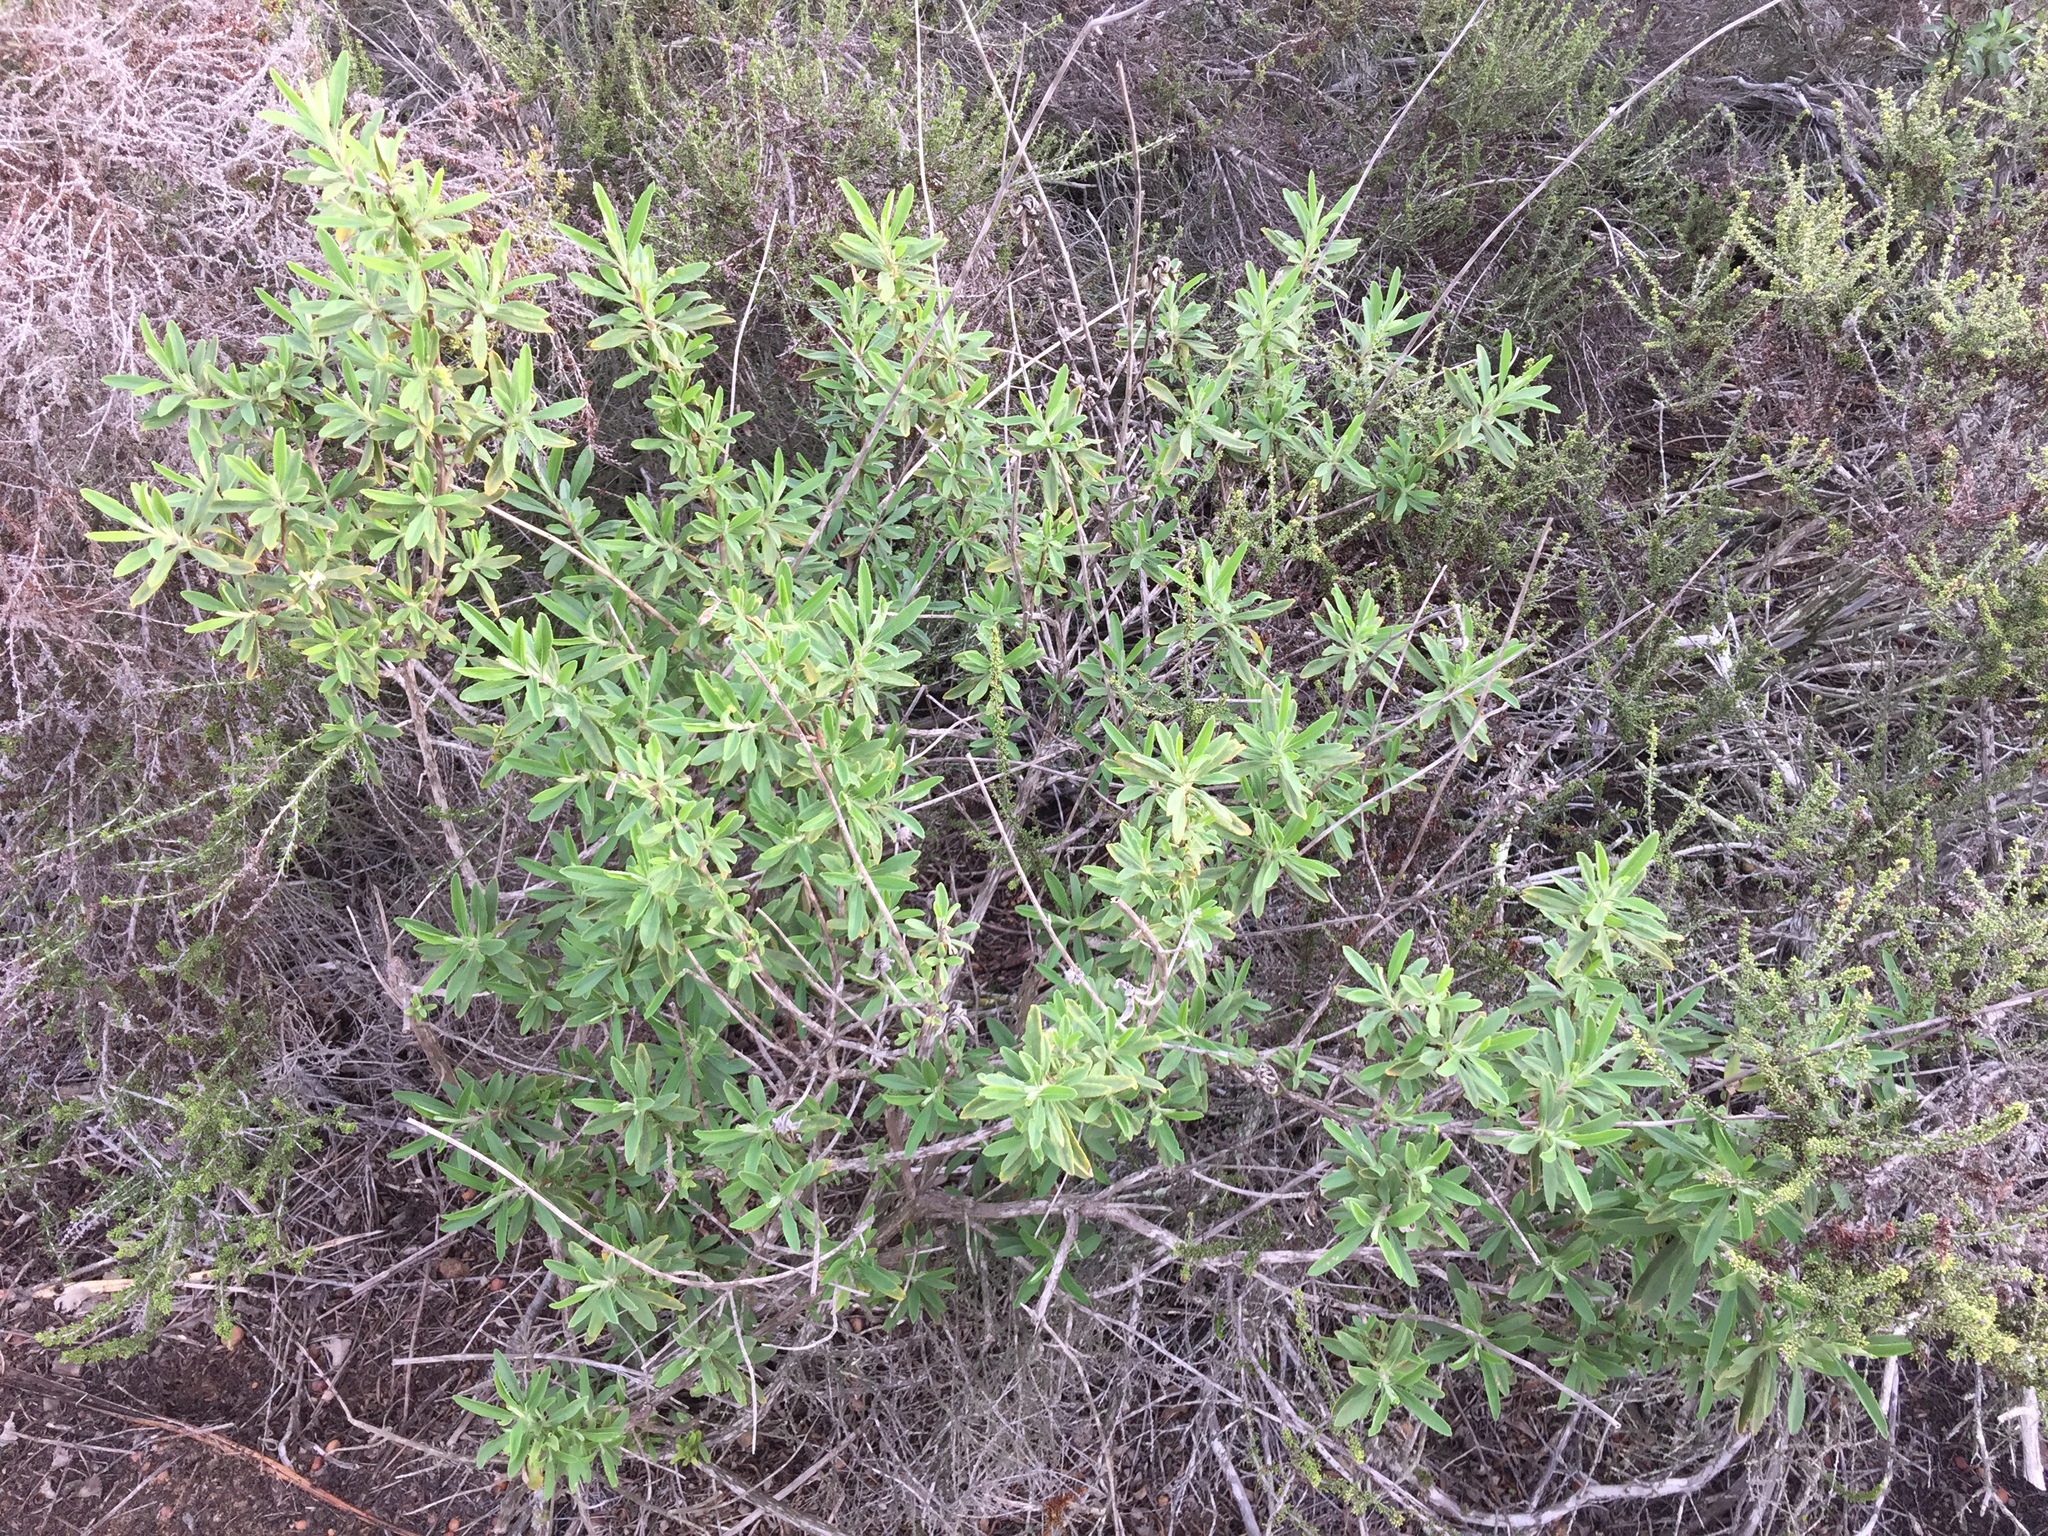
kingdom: Plantae
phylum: Tracheophyta
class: Magnoliopsida
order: Lamiales
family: Lamiaceae
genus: Salvia
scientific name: Salvia mellifera
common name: Black sage
